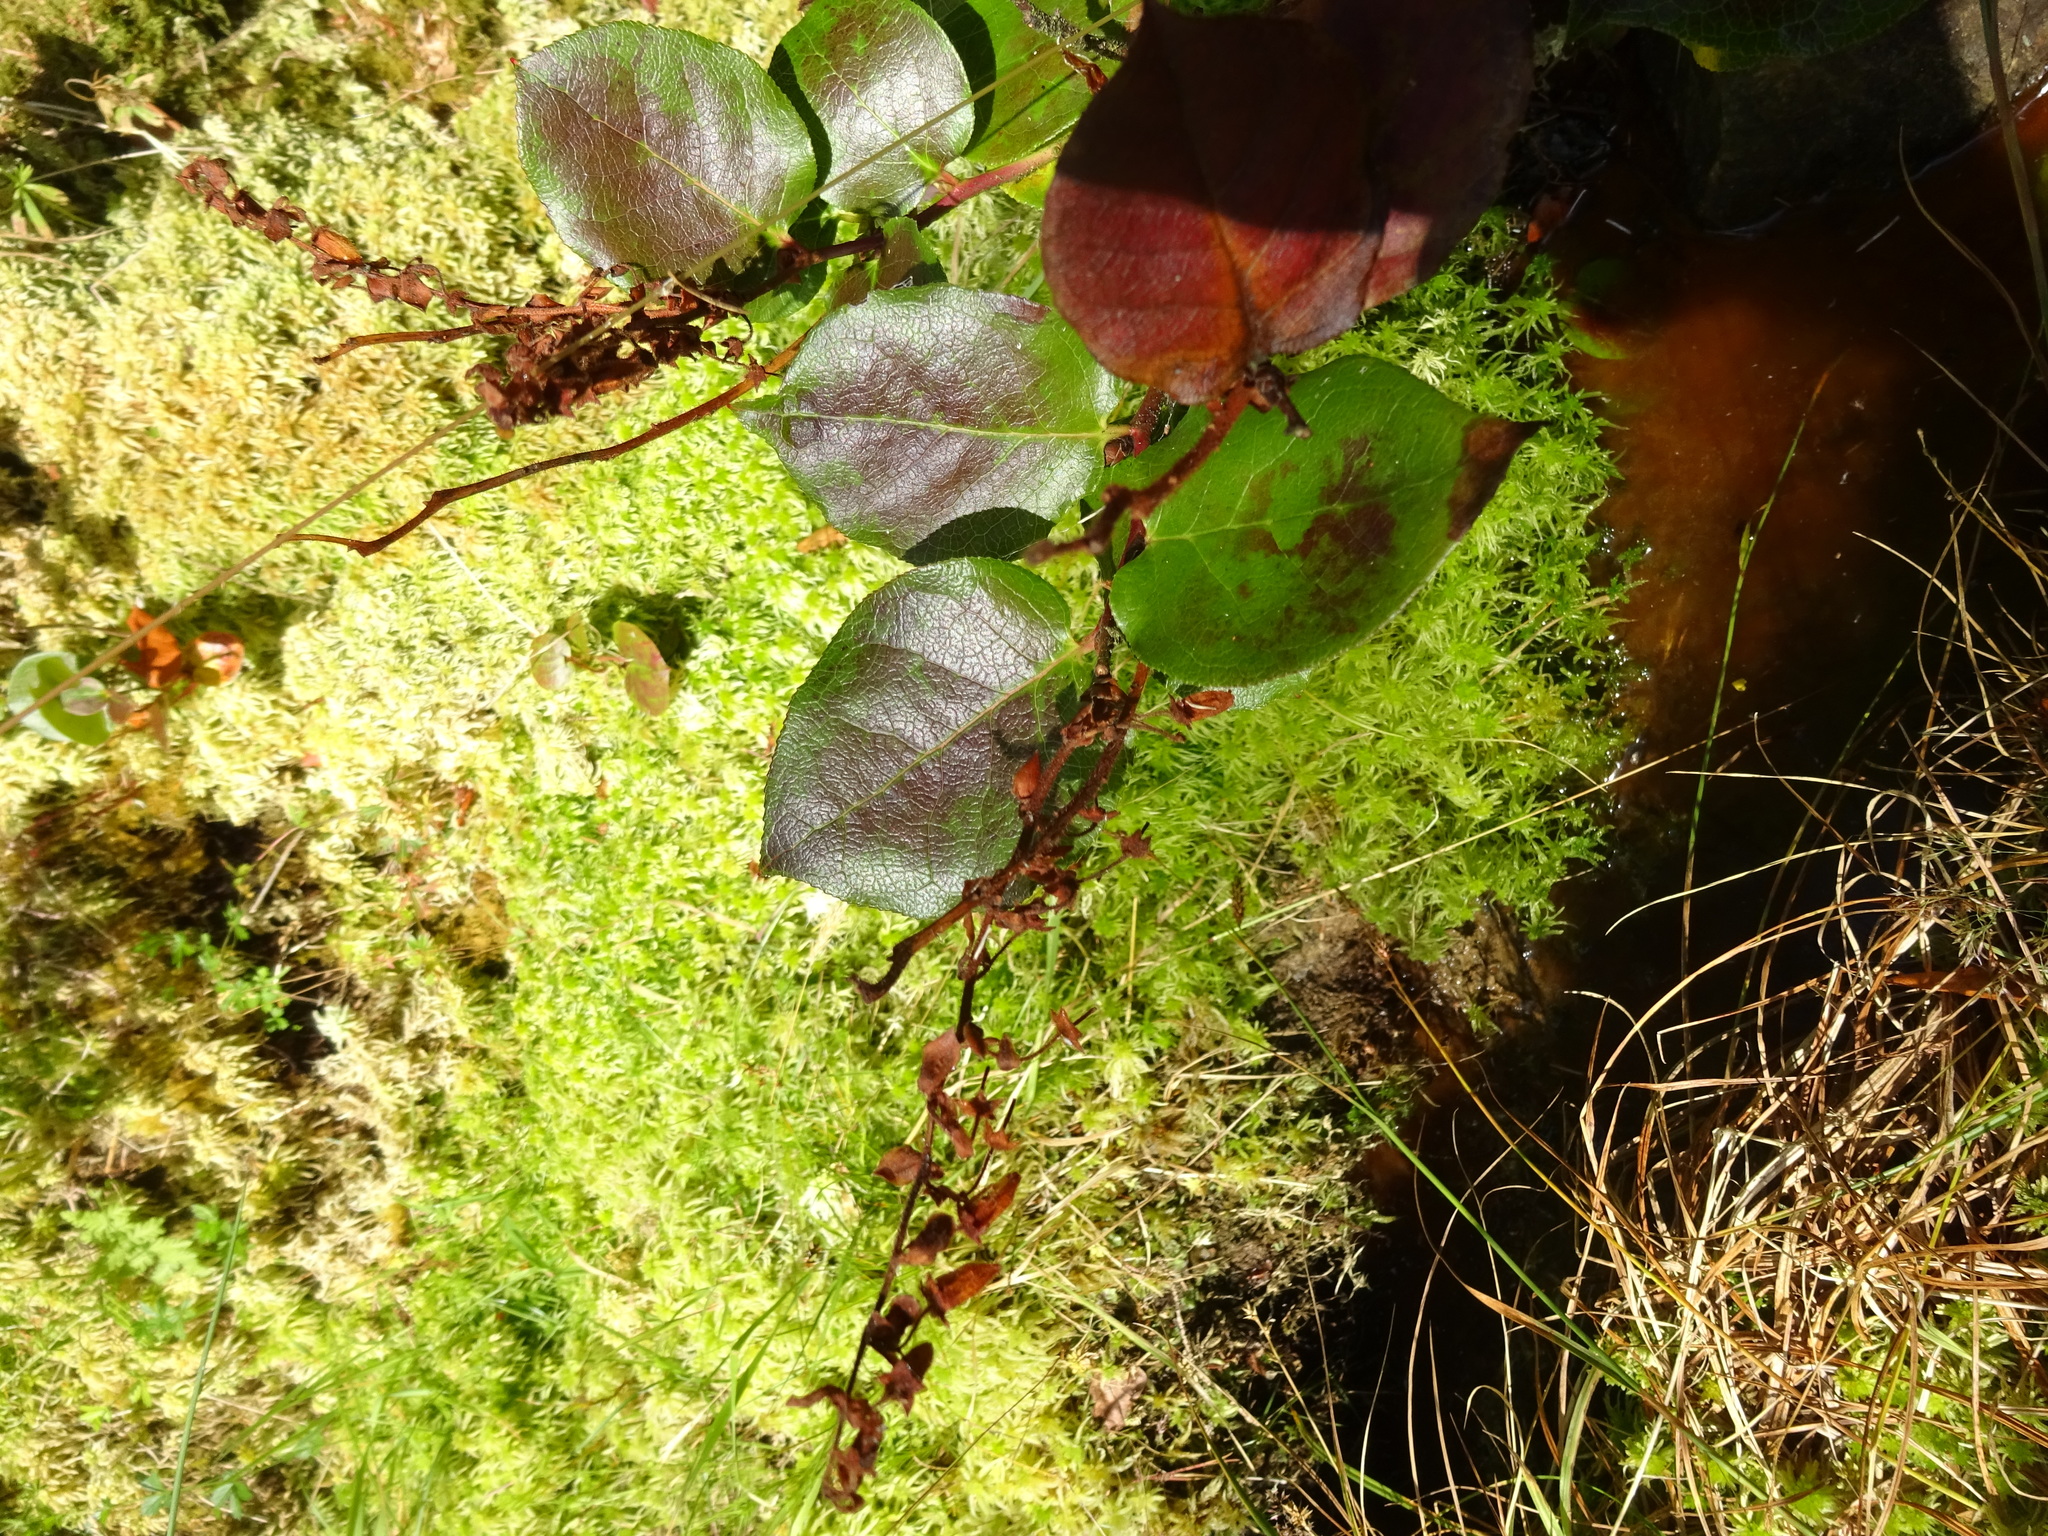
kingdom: Plantae
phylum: Tracheophyta
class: Magnoliopsida
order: Ericales
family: Ericaceae
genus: Gaultheria
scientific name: Gaultheria shallon
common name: Shallon
